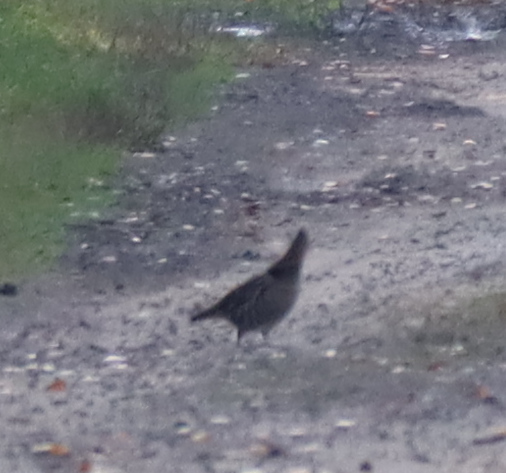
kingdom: Animalia
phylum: Chordata
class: Aves
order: Galliformes
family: Phasianidae
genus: Bonasa
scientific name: Bonasa umbellus
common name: Ruffed grouse
